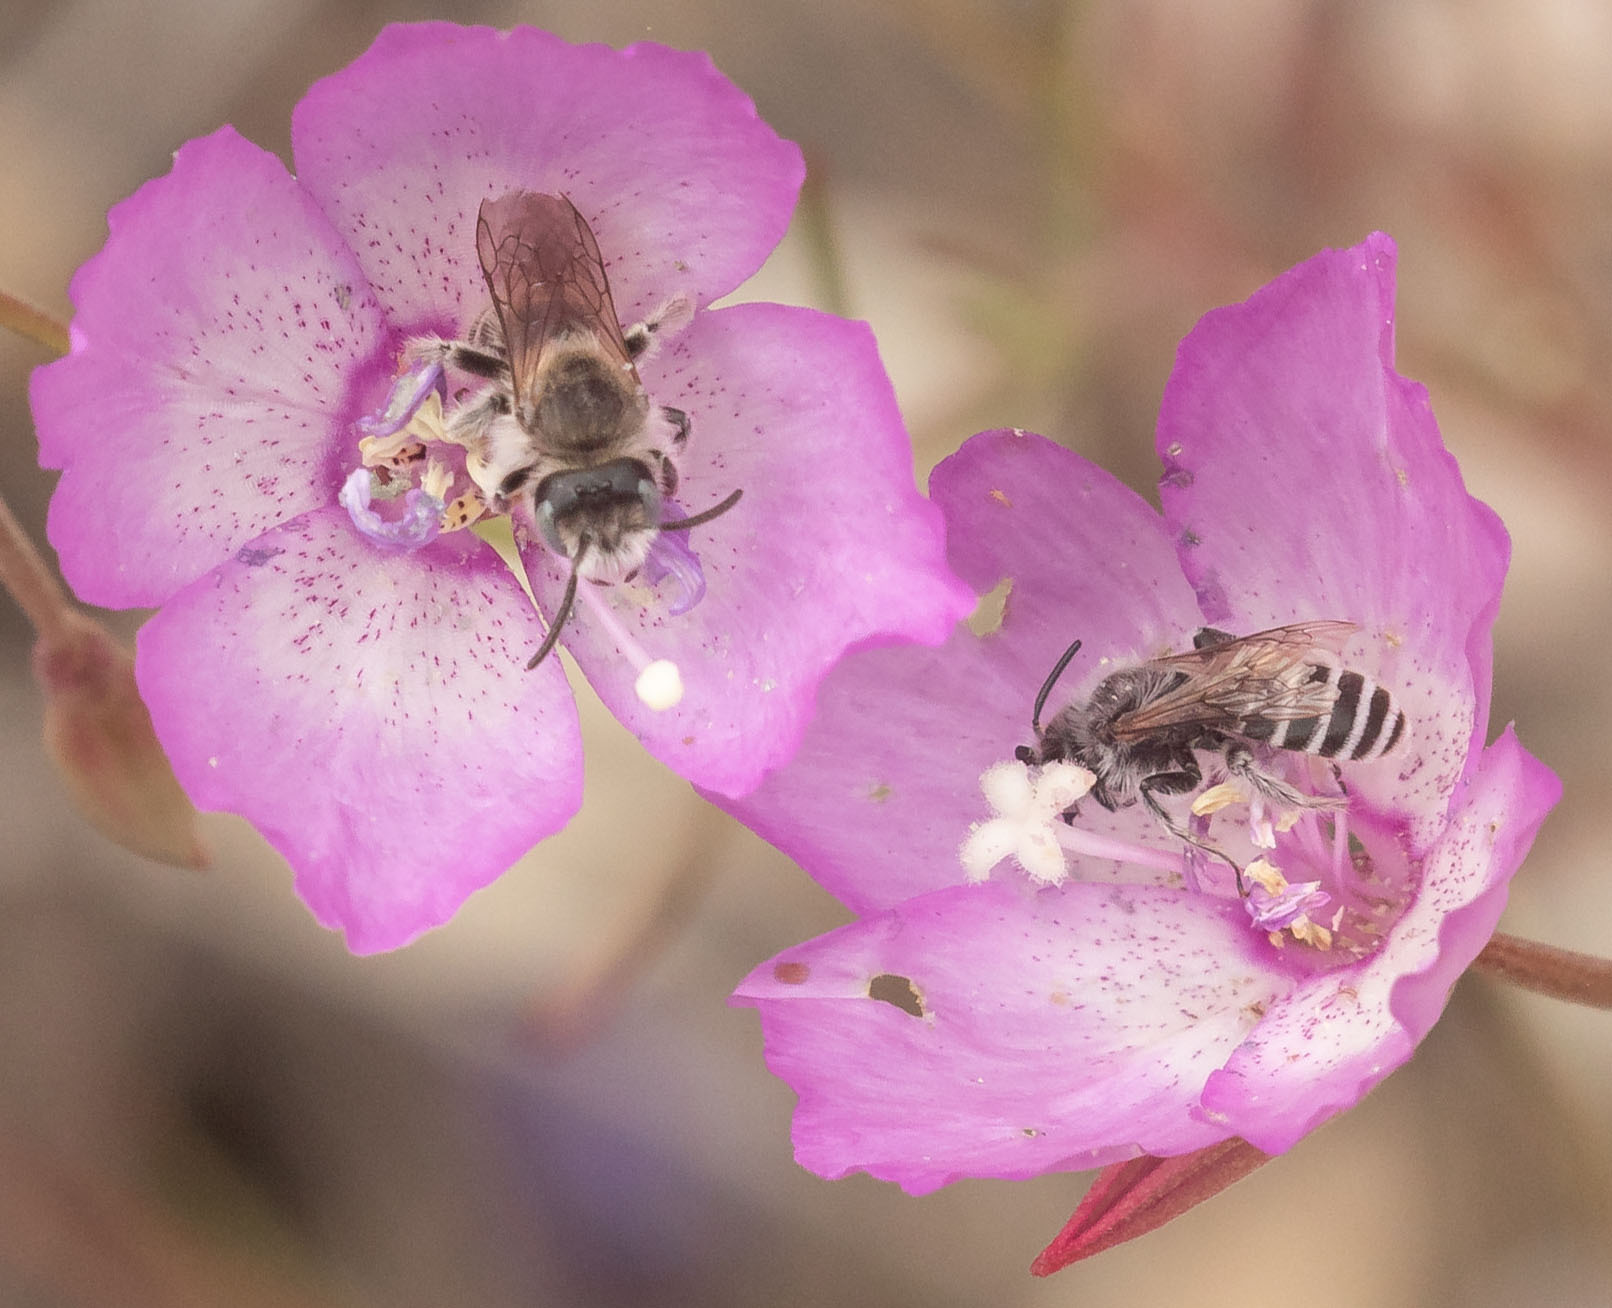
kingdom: Animalia
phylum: Arthropoda
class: Insecta
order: Hymenoptera
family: Melittidae
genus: Hesperapis
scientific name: Hesperapis regularis
